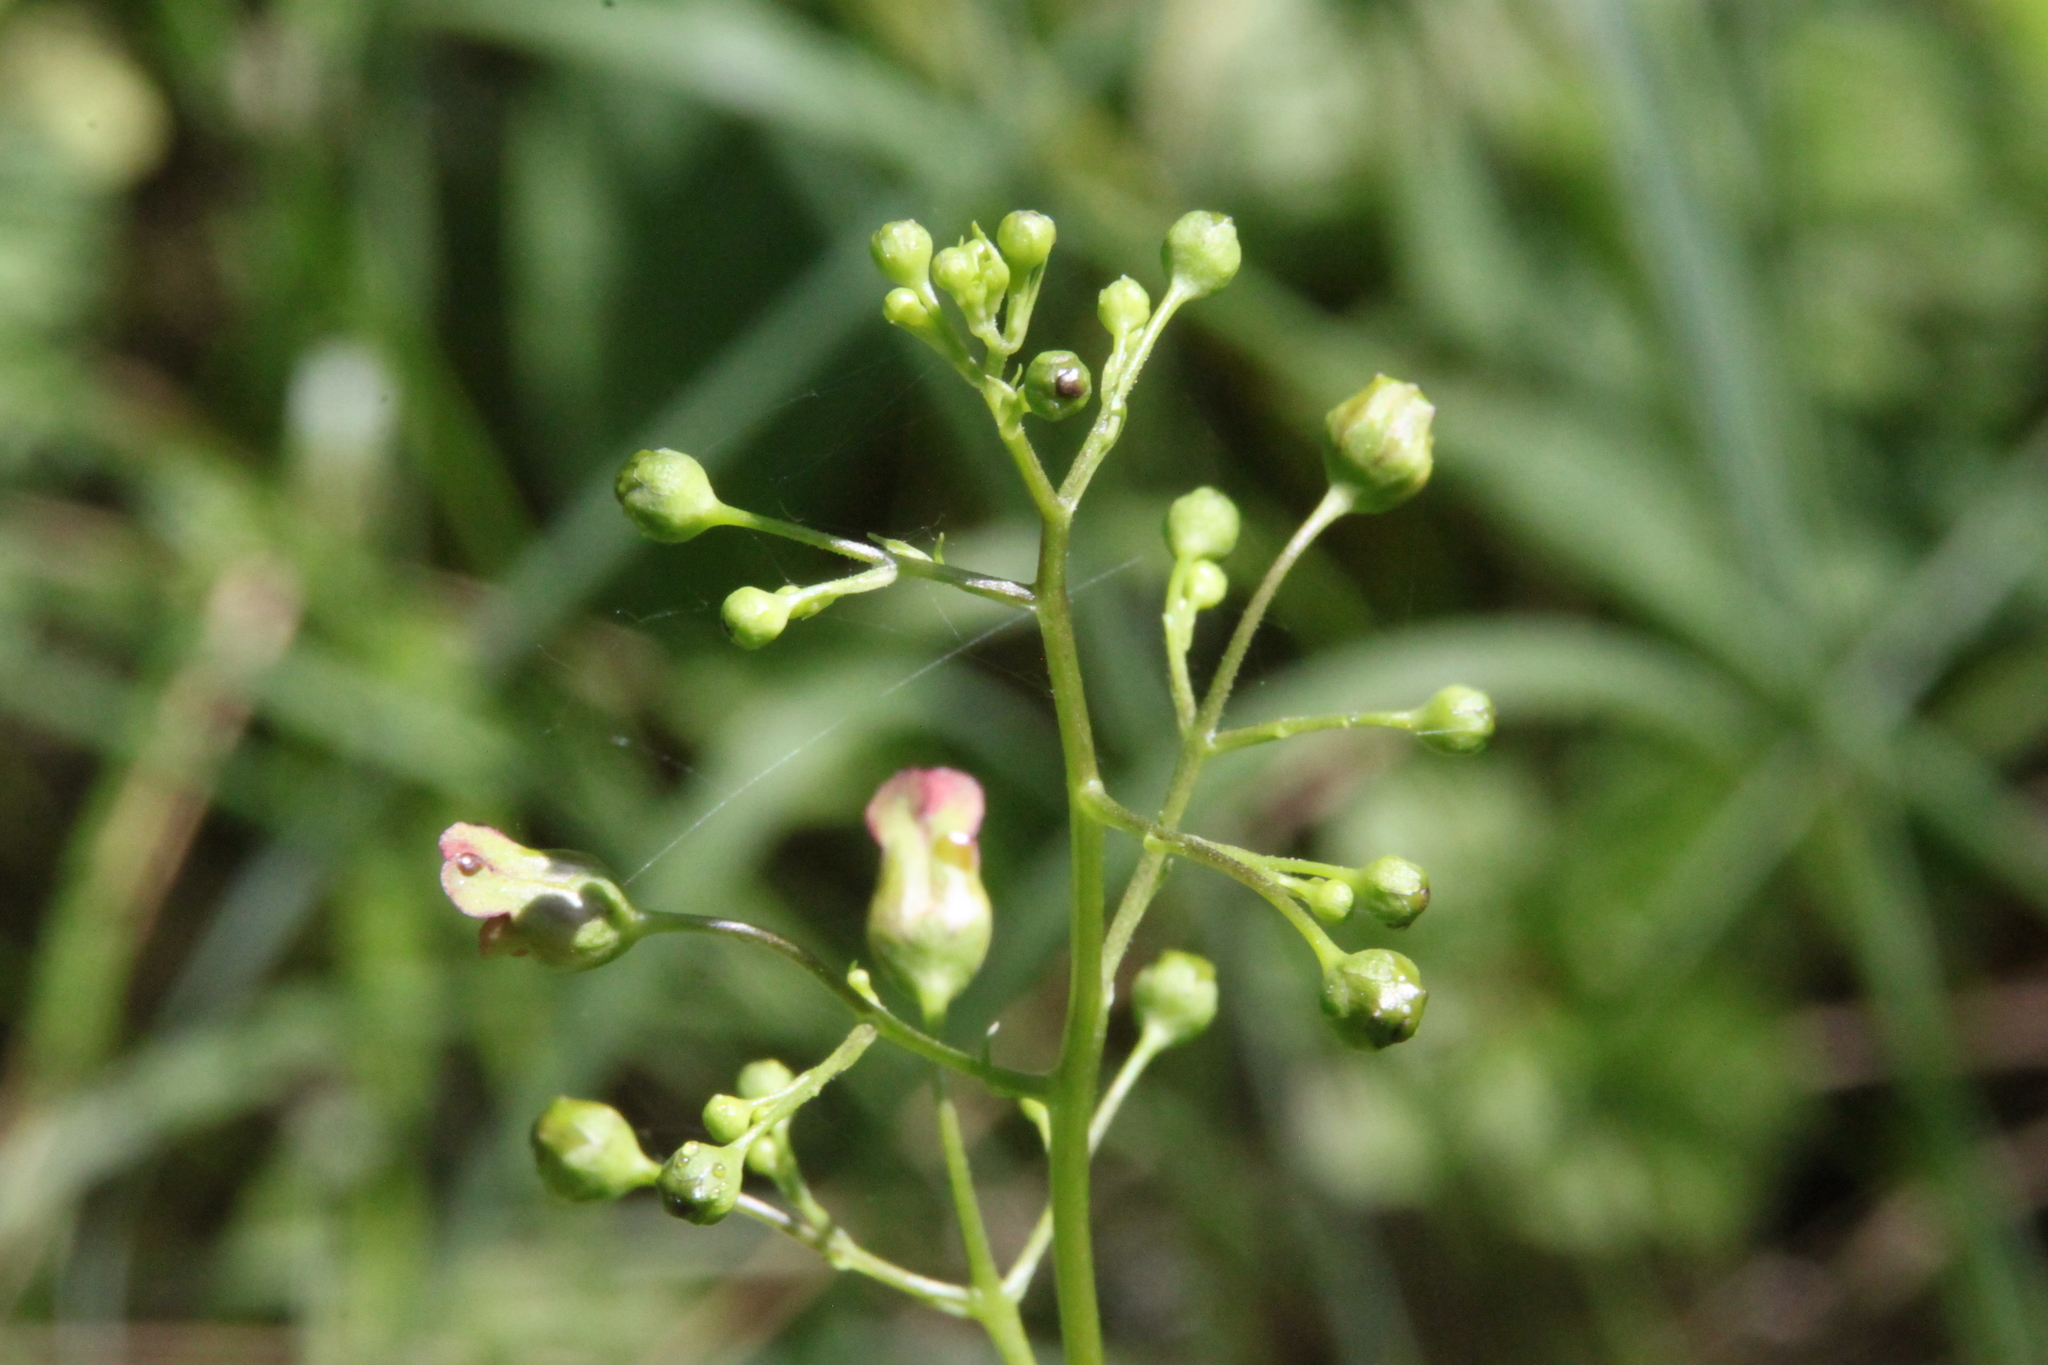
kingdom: Plantae
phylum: Tracheophyta
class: Magnoliopsida
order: Lamiales
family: Scrophulariaceae
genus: Scrophularia
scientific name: Scrophularia nodosa
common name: Common figwort
